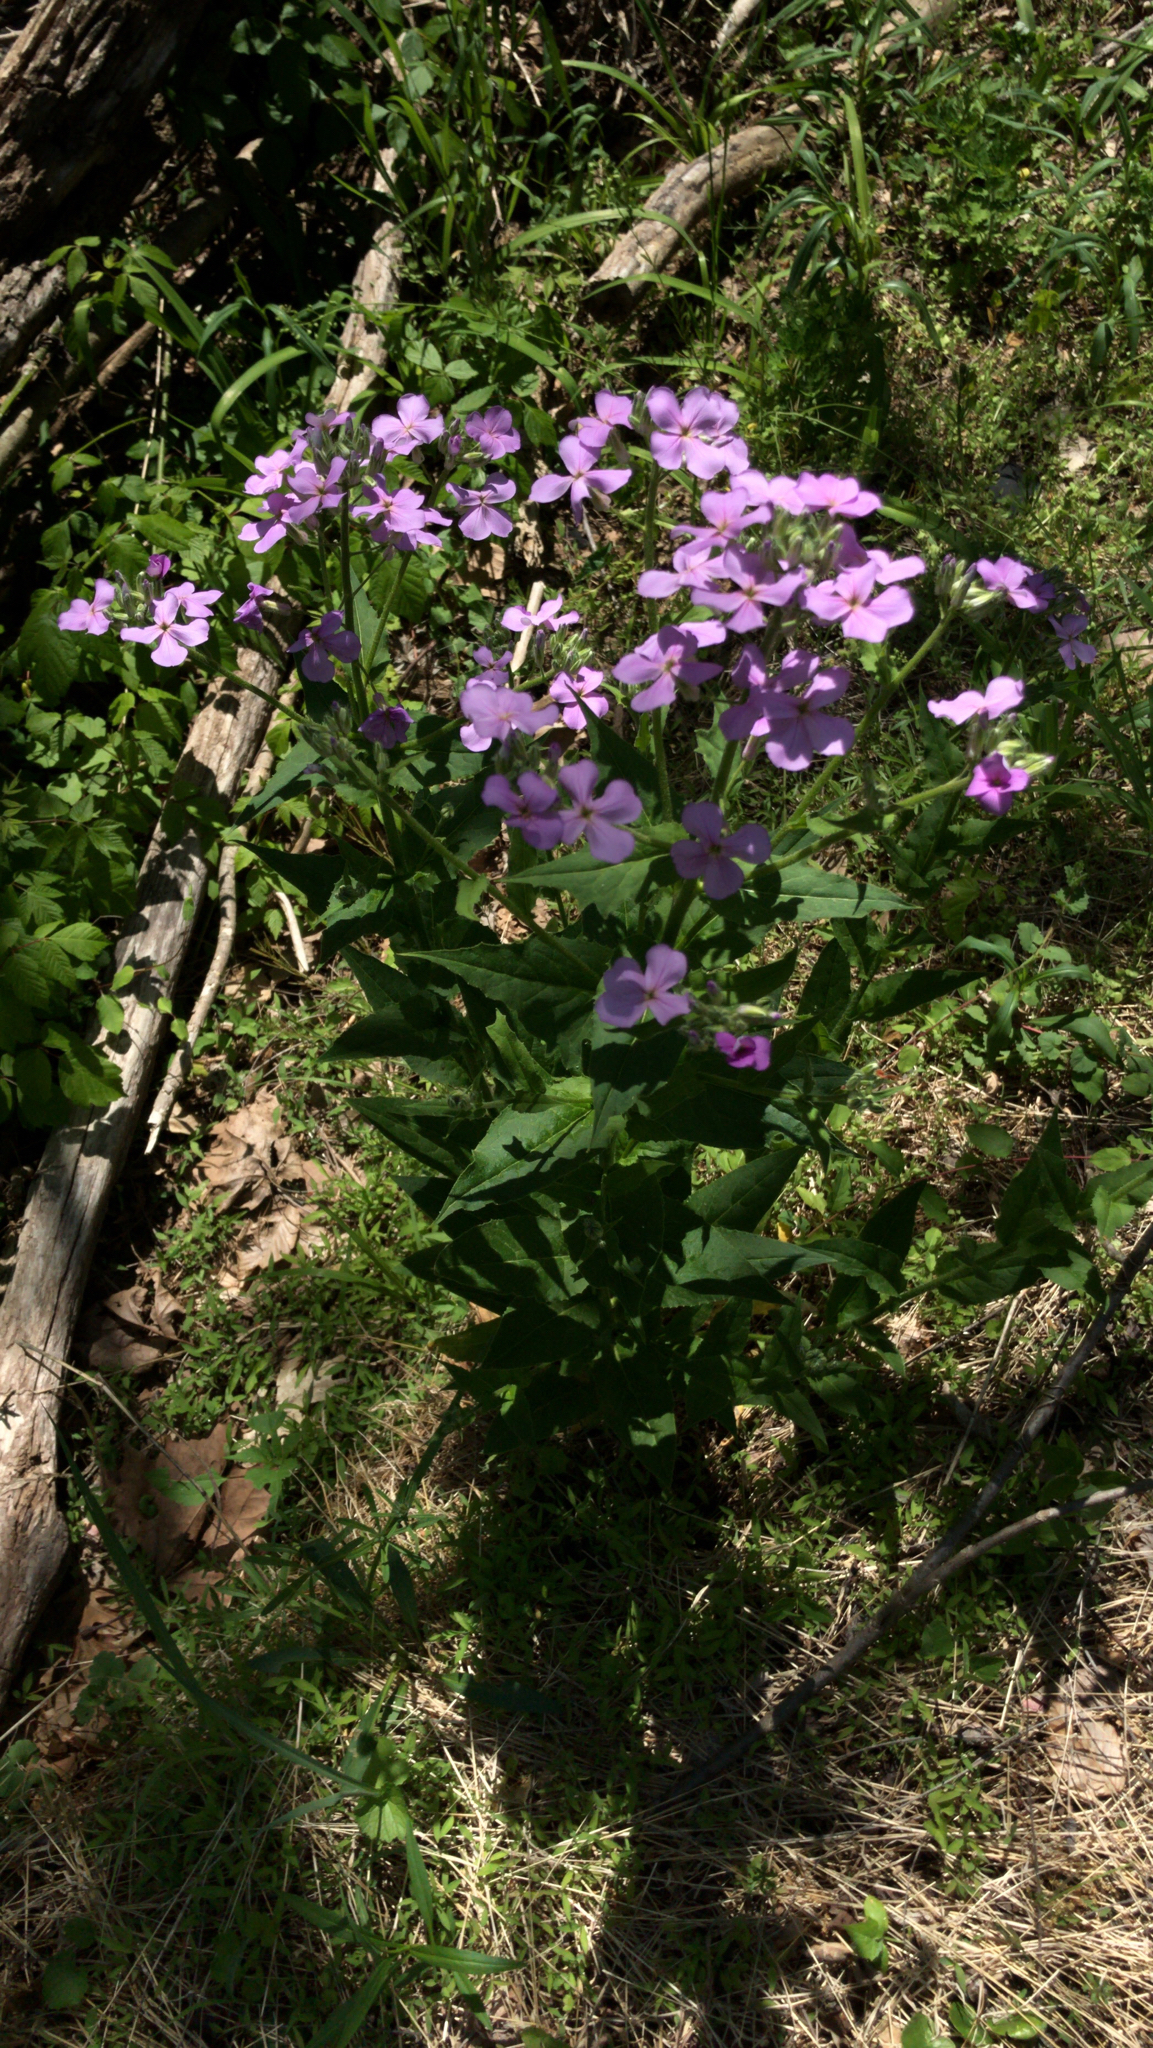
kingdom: Plantae
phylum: Tracheophyta
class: Magnoliopsida
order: Brassicales
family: Brassicaceae
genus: Hesperis
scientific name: Hesperis matronalis
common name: Dame's-violet
